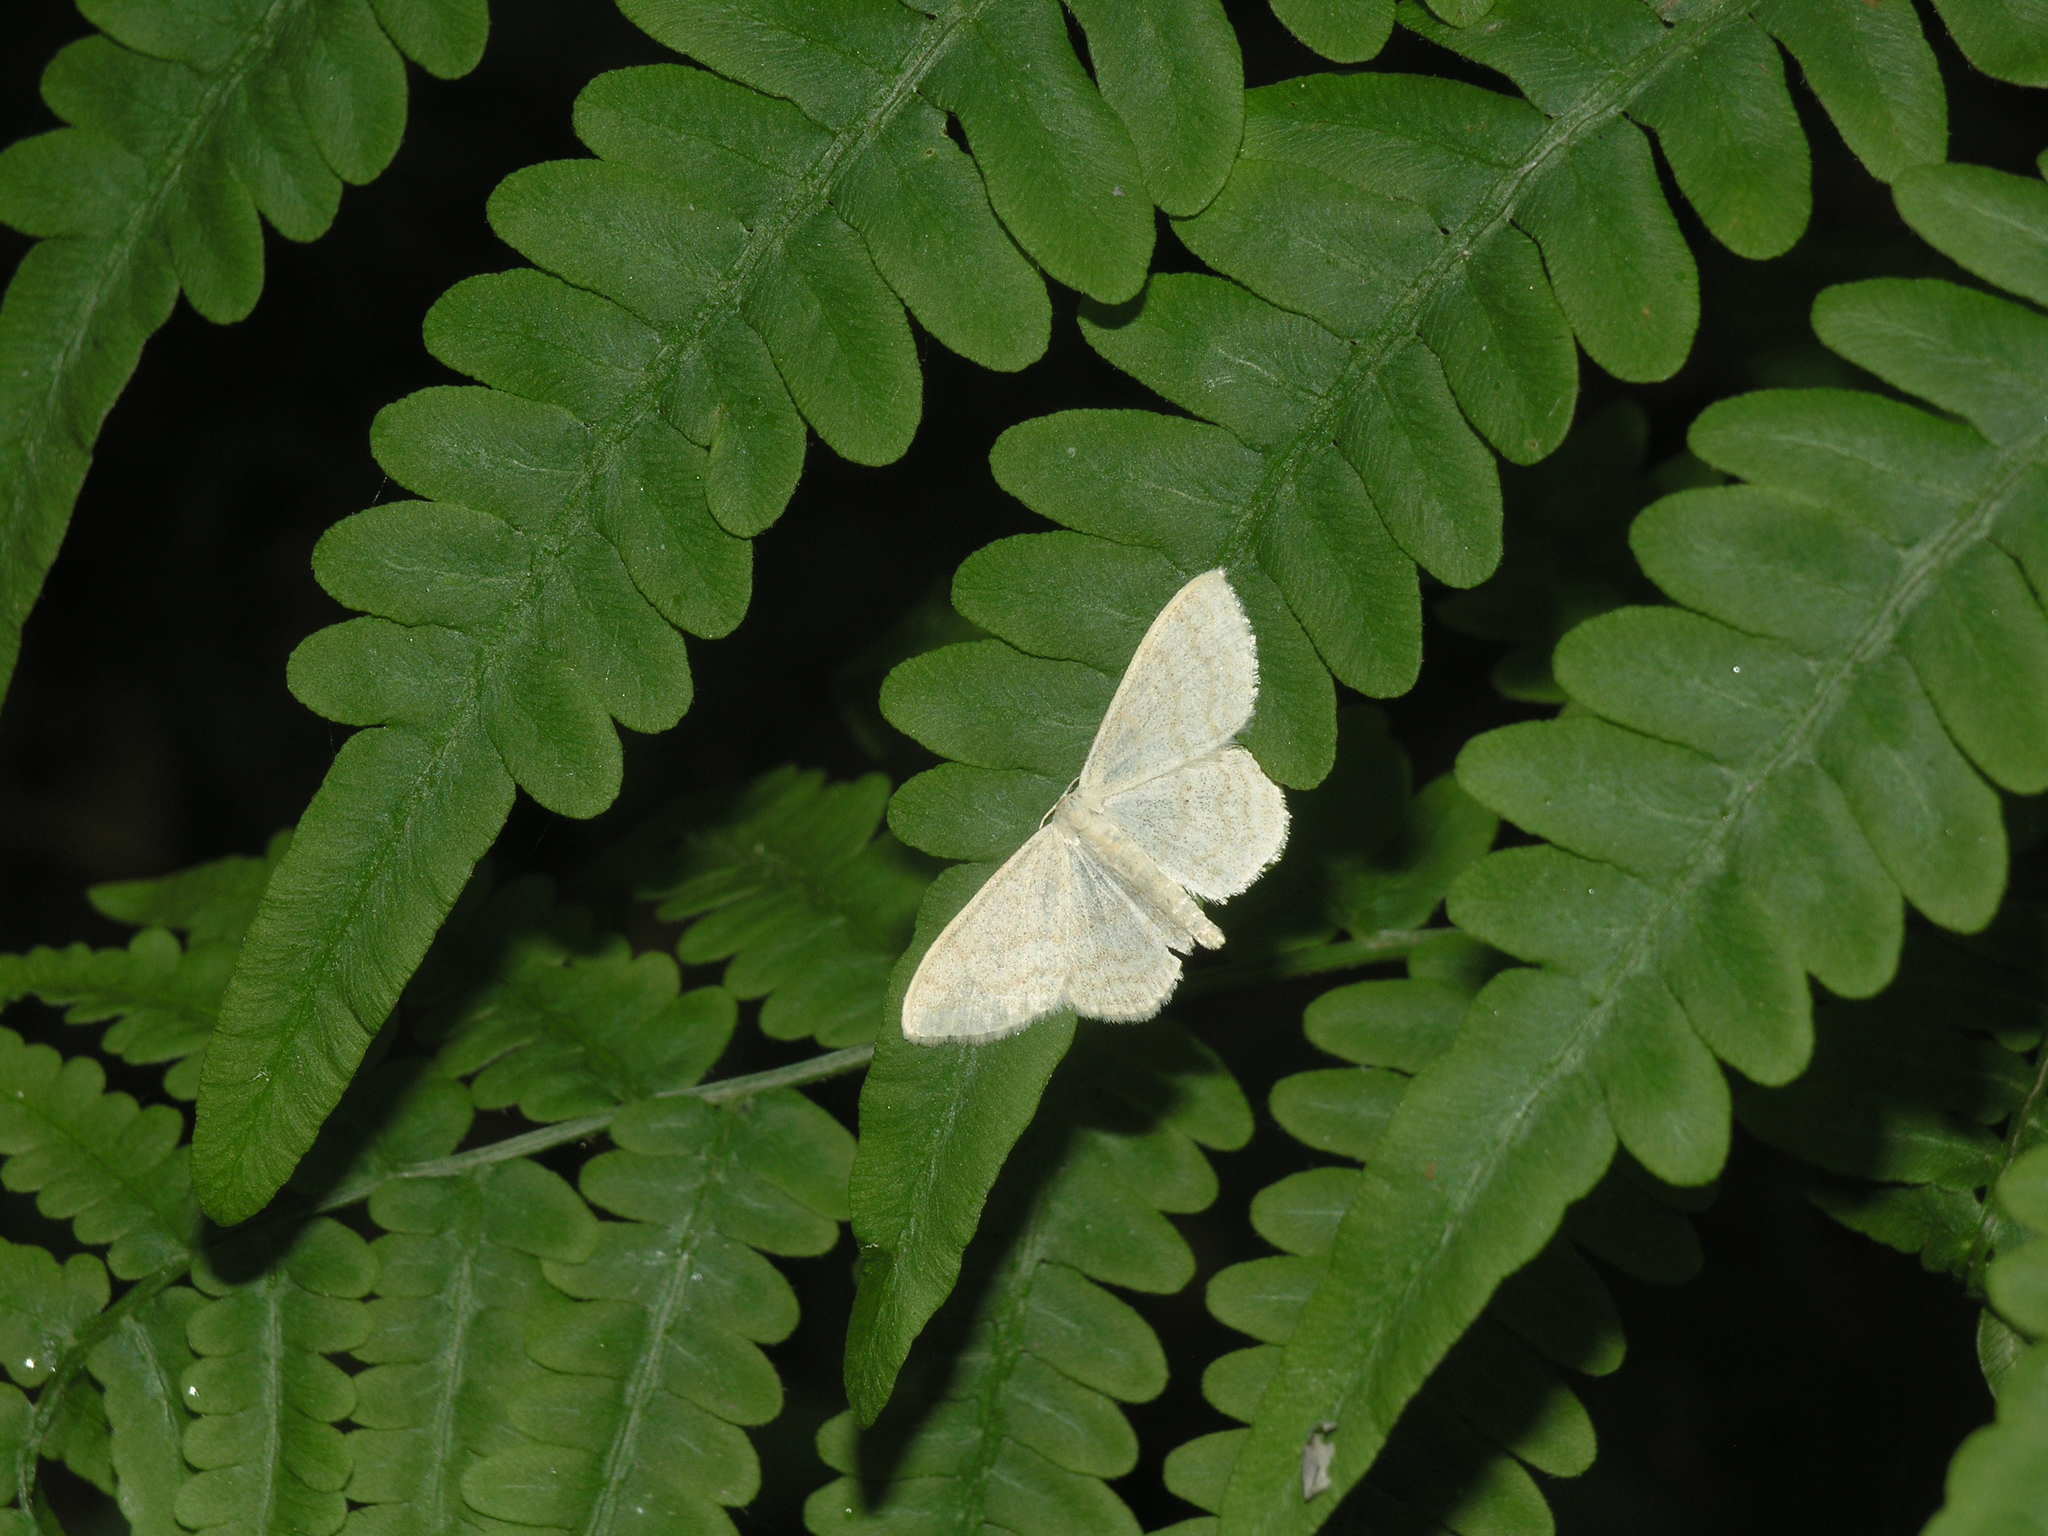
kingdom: Plantae
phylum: Tracheophyta
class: Polypodiopsida
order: Polypodiales
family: Dennstaedtiaceae
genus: Pteridium
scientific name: Pteridium aquilinum
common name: Bracken
